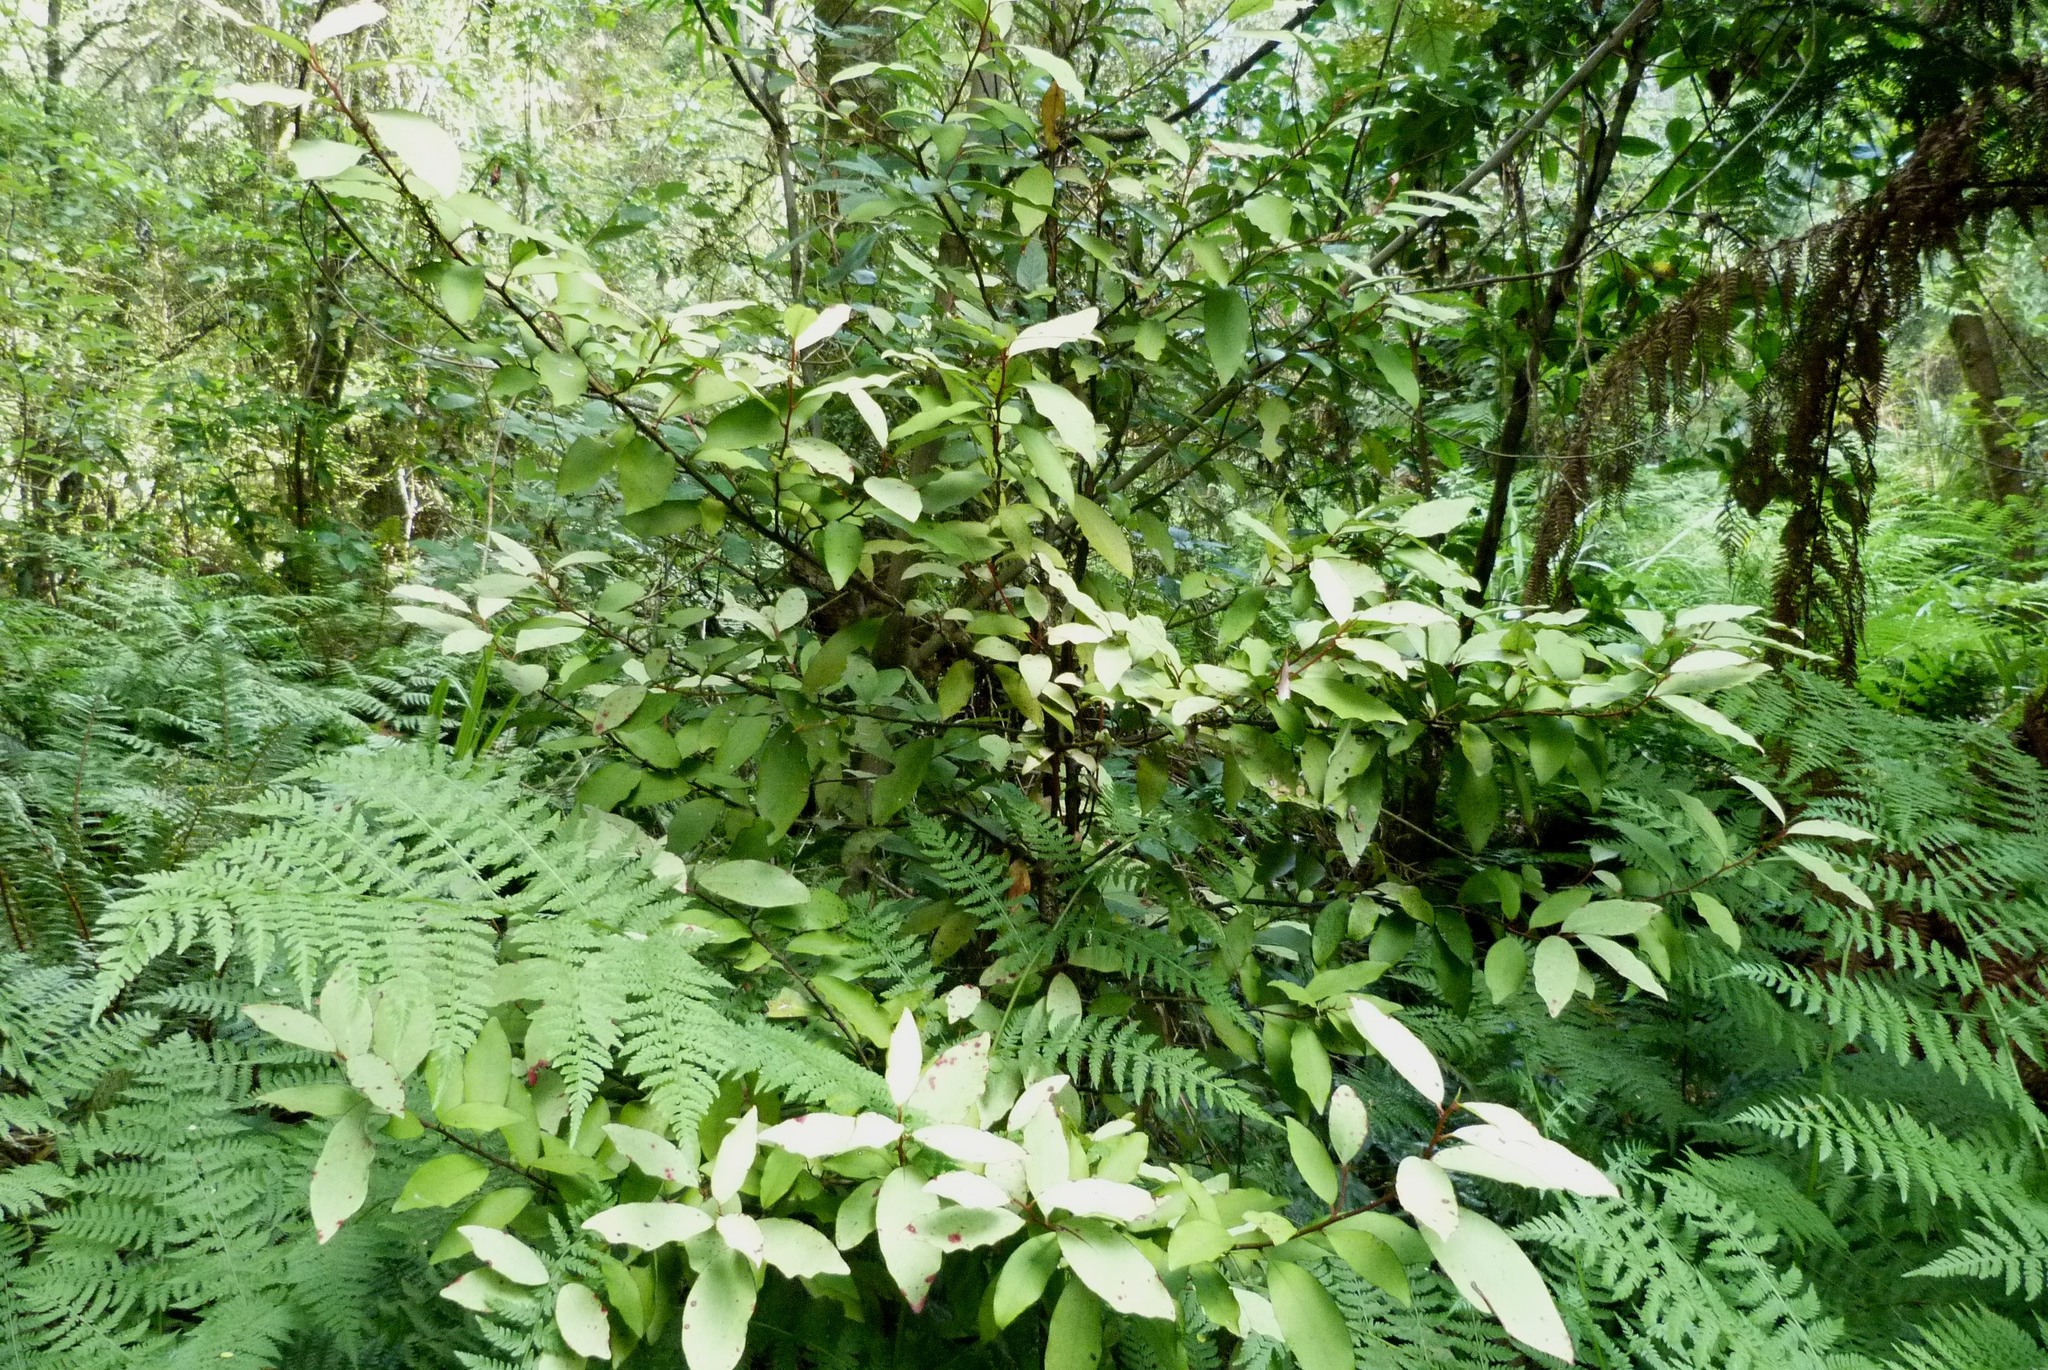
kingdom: Plantae
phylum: Tracheophyta
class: Magnoliopsida
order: Canellales
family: Winteraceae
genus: Pseudowintera
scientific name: Pseudowintera colorata
